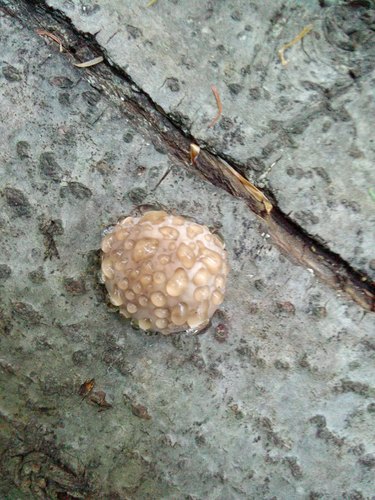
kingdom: Fungi
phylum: Basidiomycota
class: Agaricomycetes
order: Polyporales
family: Fomitopsidaceae
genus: Fomitopsis
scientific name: Fomitopsis pinicola
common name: Red-belted bracket
